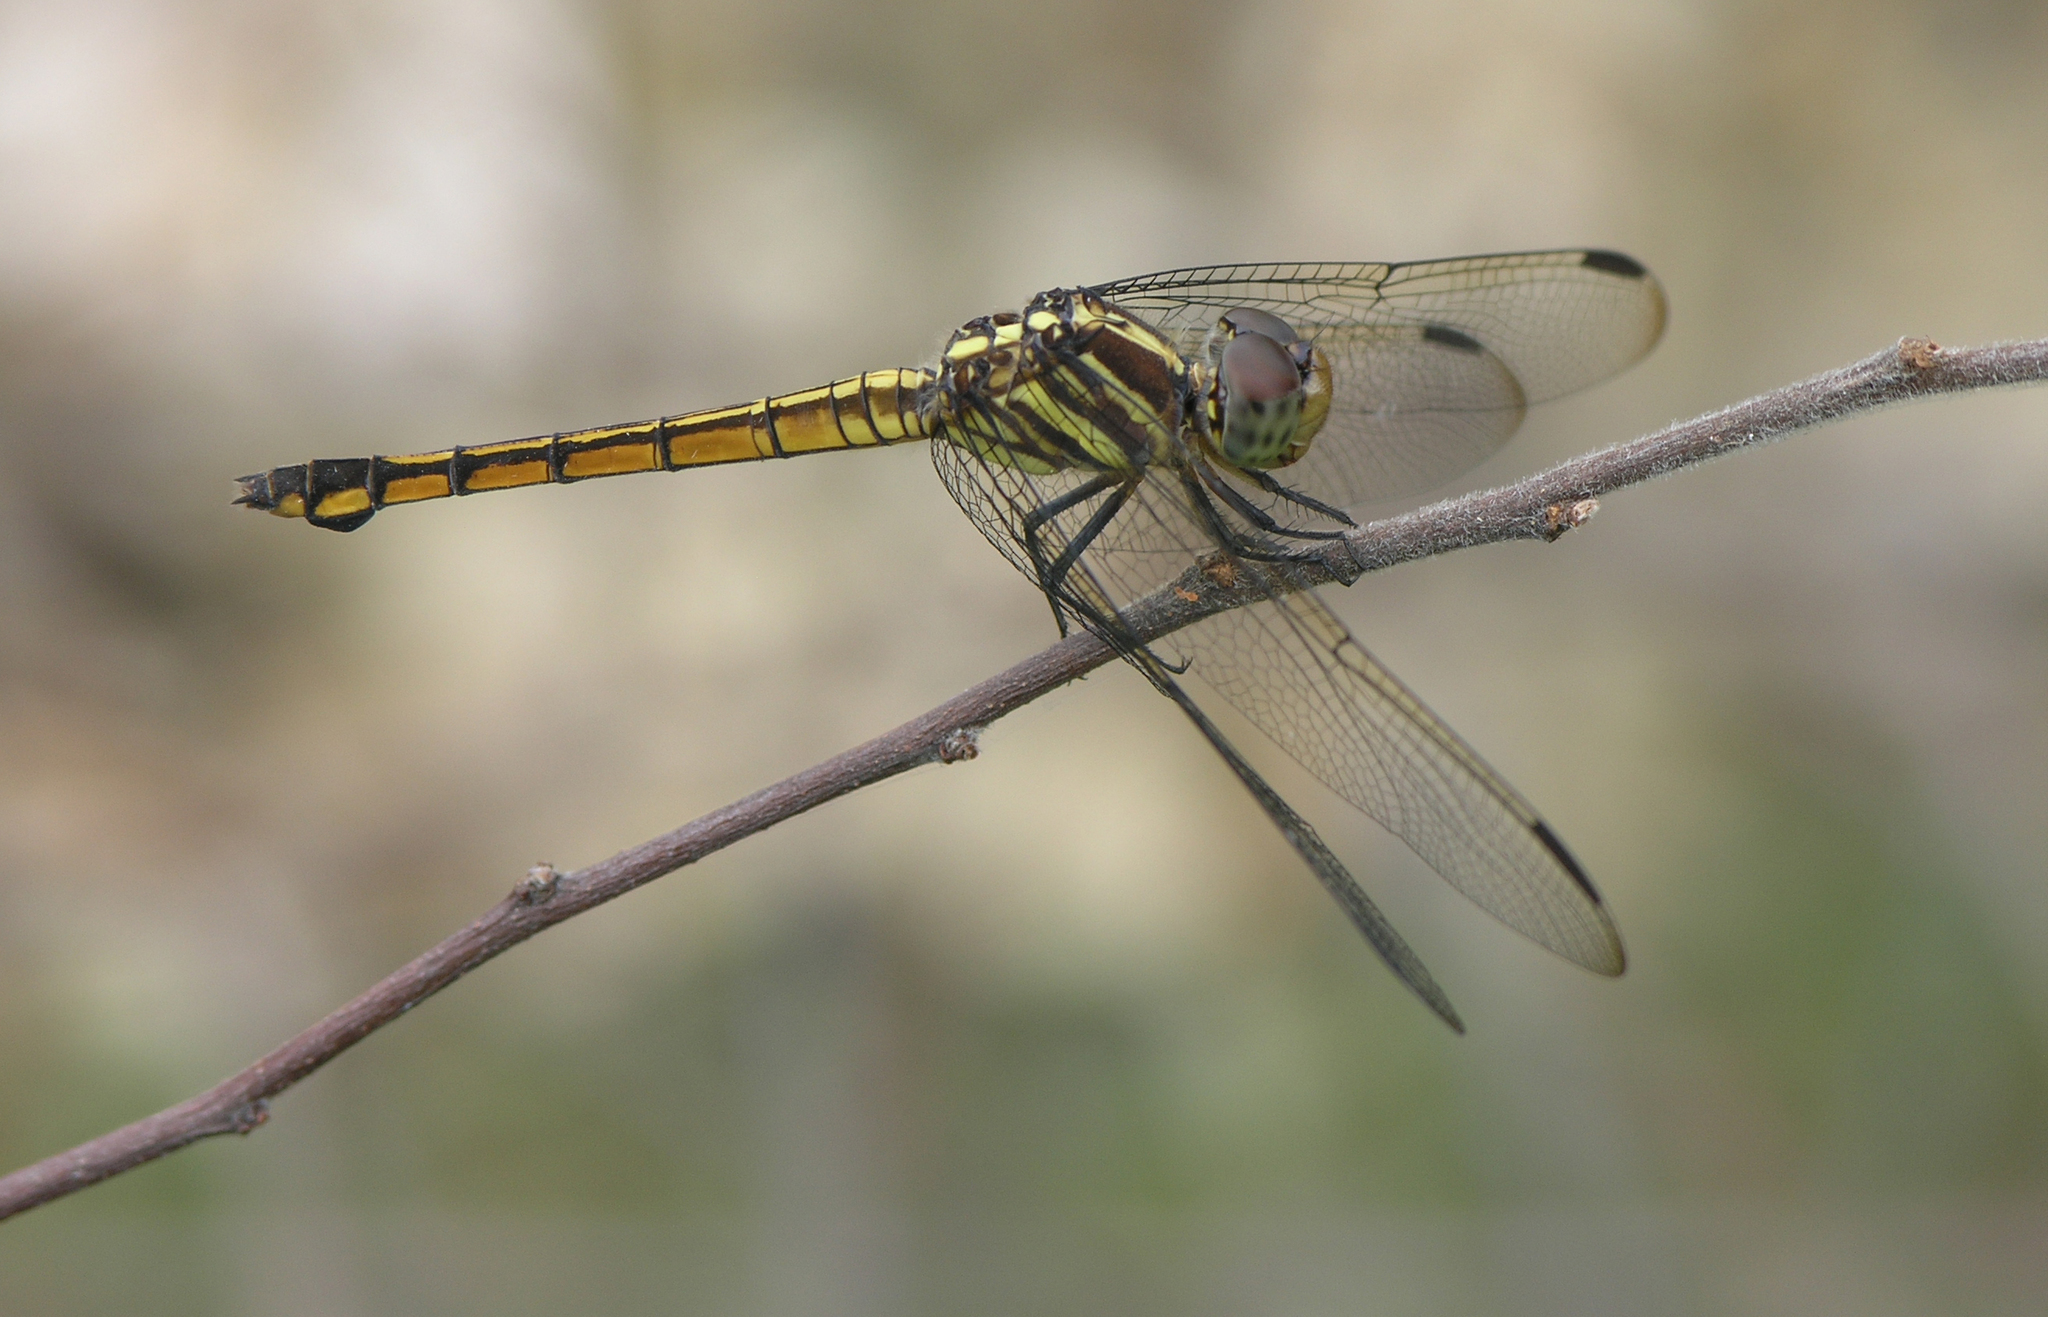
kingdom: Animalia
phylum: Arthropoda
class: Insecta
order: Odonata
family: Libellulidae
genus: Potamarcha
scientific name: Potamarcha congener
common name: Blue chaser
